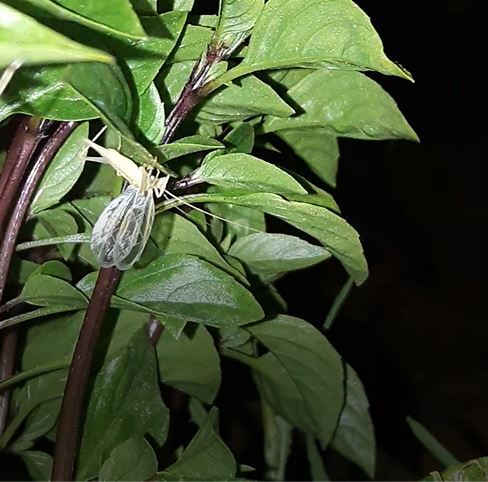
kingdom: Animalia
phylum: Arthropoda
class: Insecta
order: Orthoptera
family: Gryllidae
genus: Oecanthus
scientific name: Oecanthus pellucens
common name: Tree-cricket
